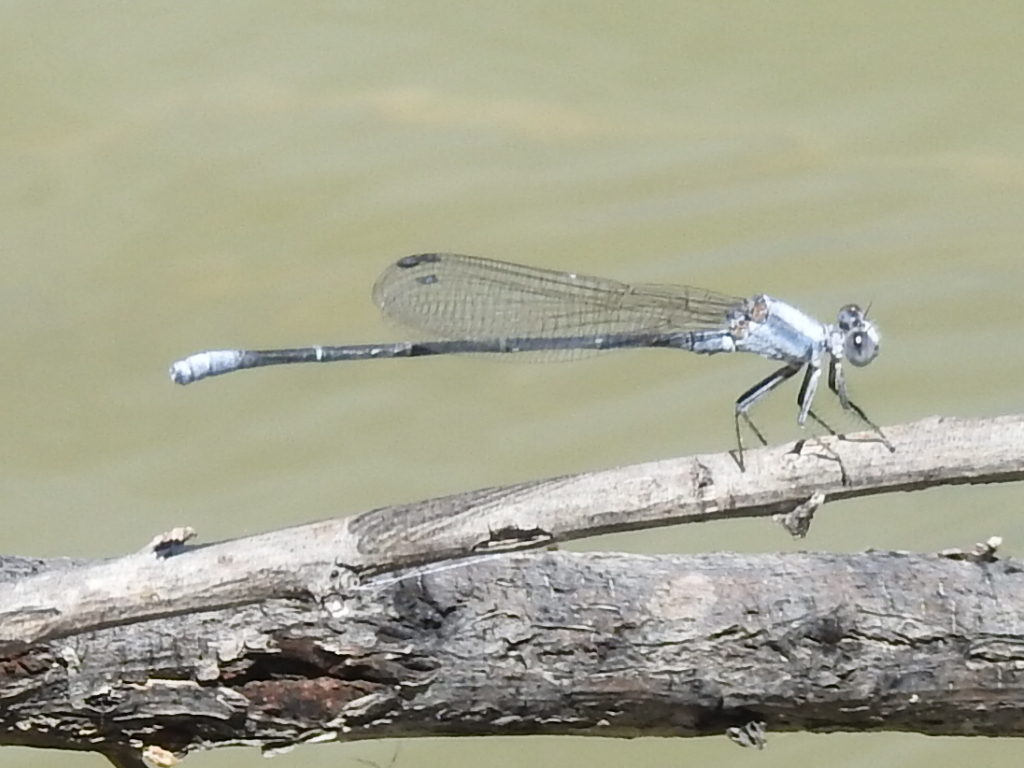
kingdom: Animalia
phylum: Arthropoda
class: Insecta
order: Odonata
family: Coenagrionidae
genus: Argia
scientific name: Argia moesta
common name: Powdered dancer
